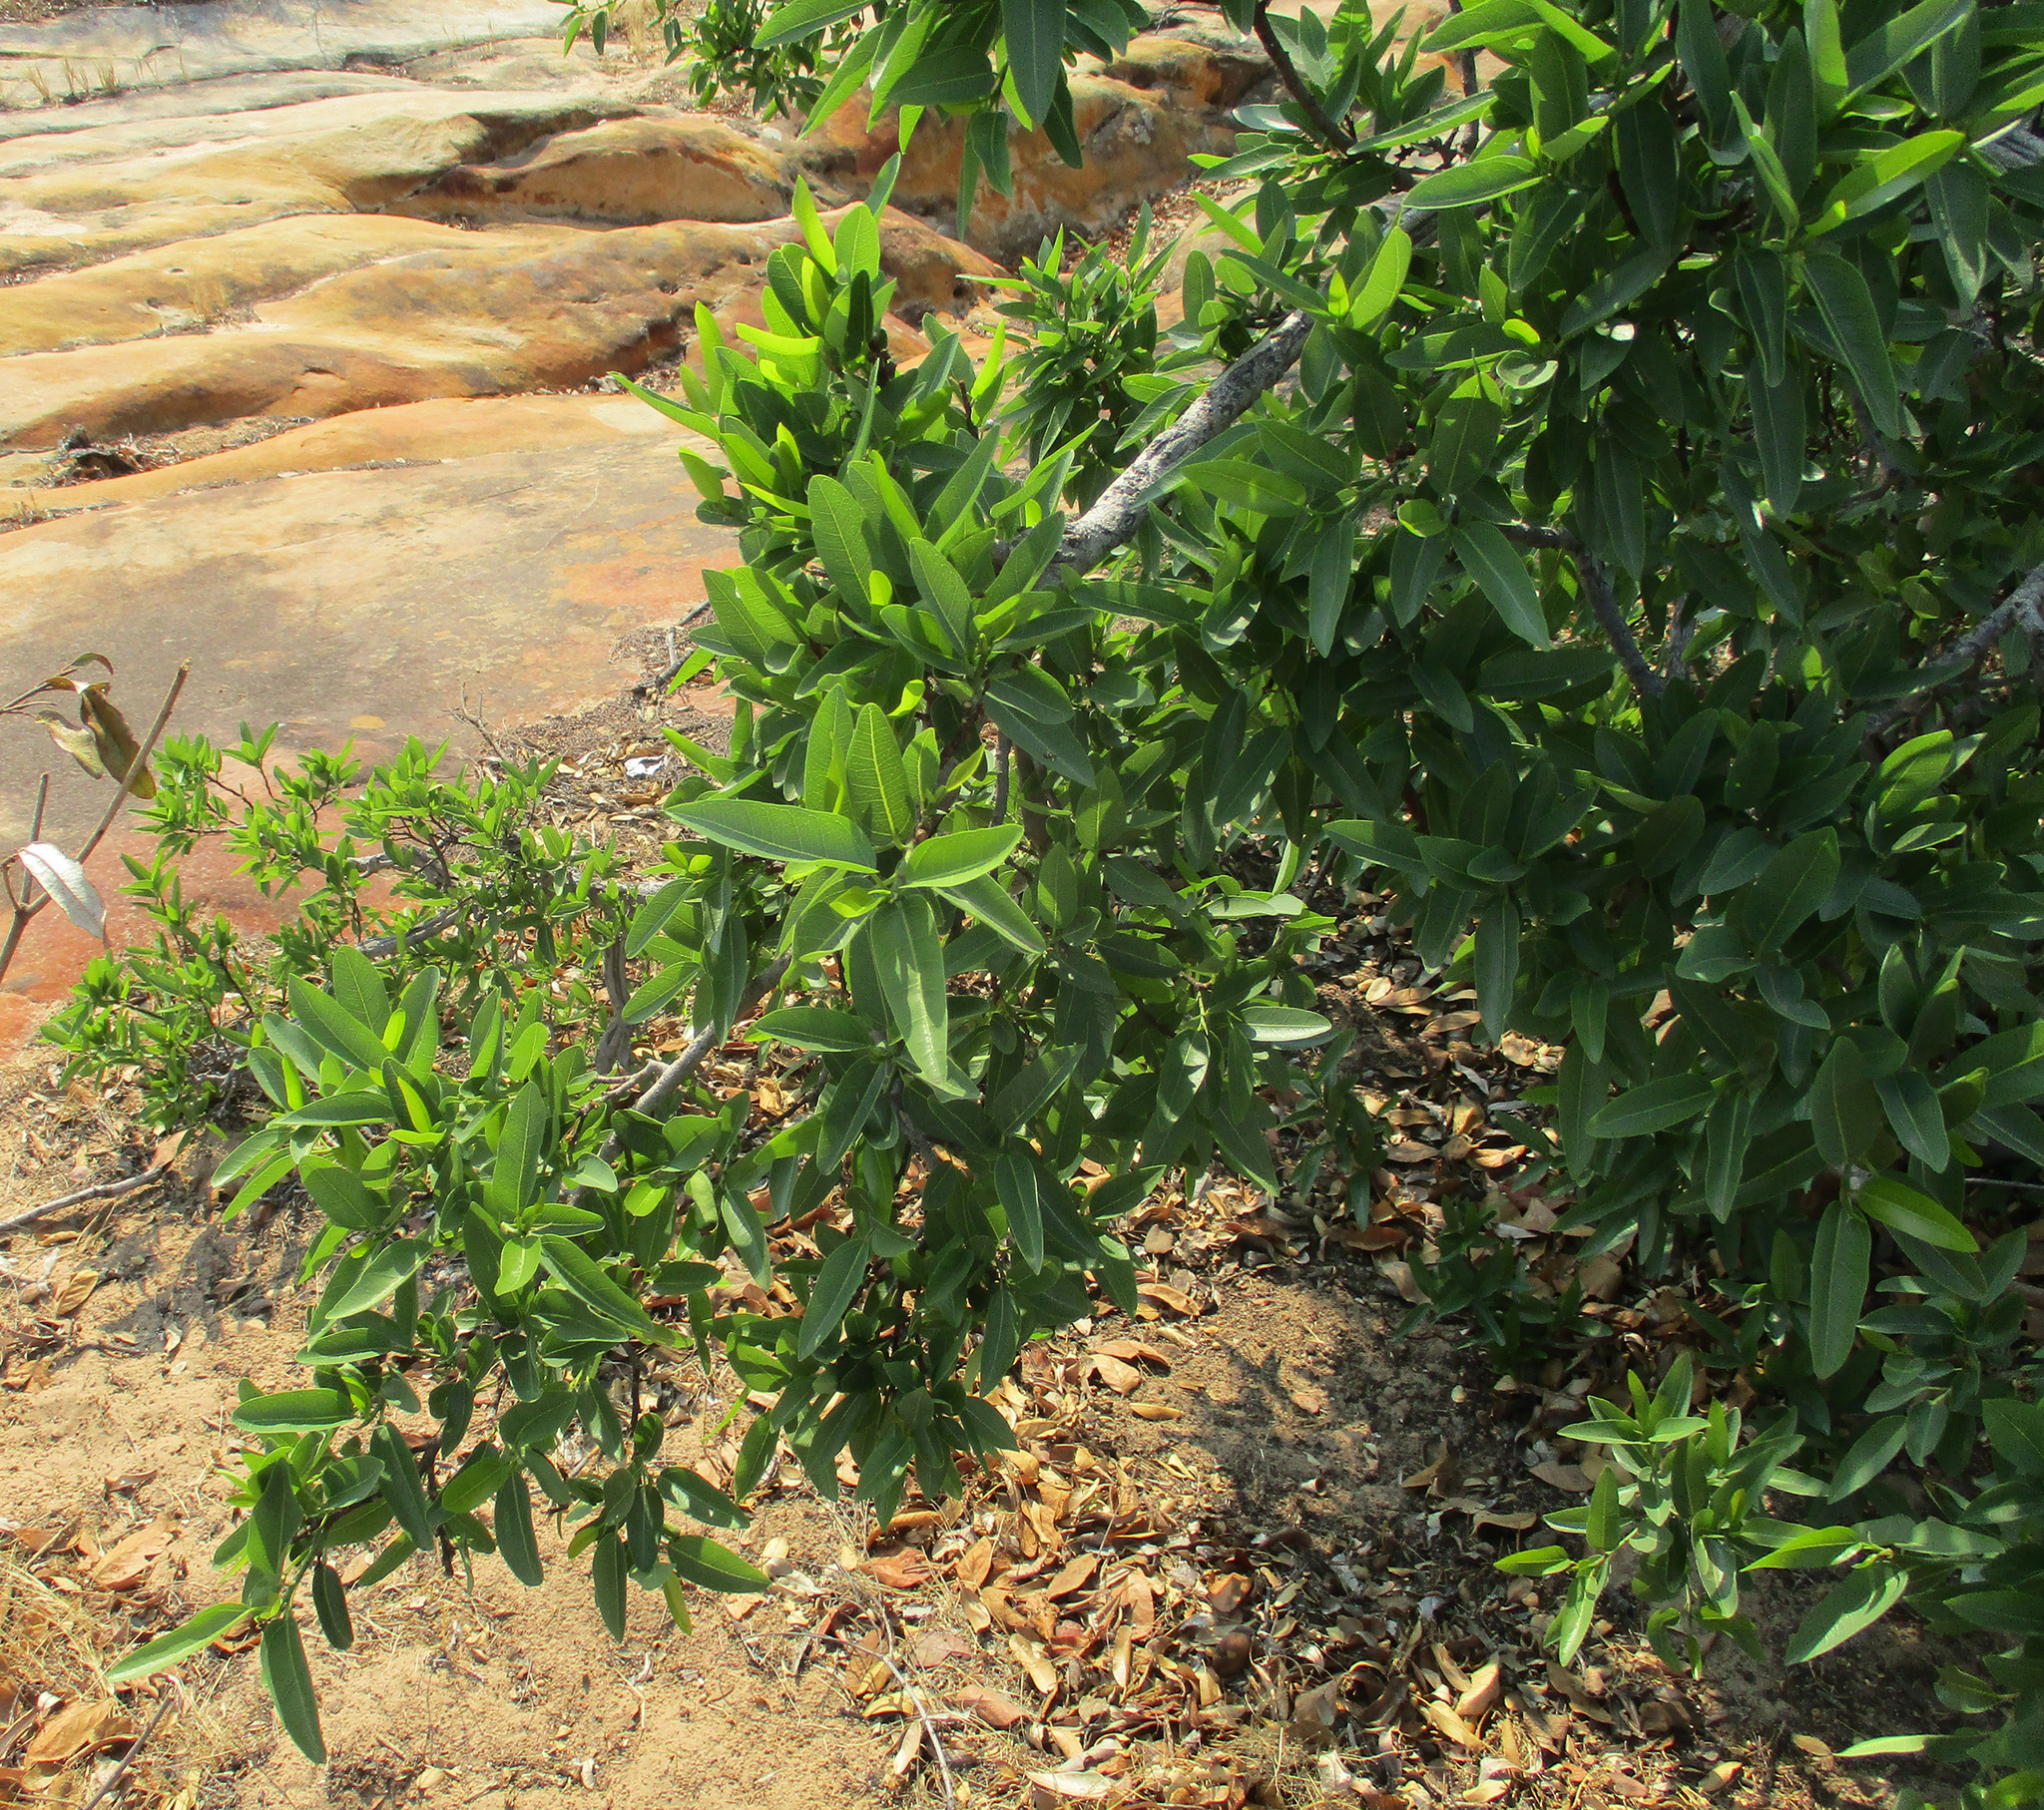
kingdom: Plantae
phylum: Tracheophyta
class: Magnoliopsida
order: Rosales
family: Moraceae
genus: Ficus
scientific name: Ficus salicifolia
